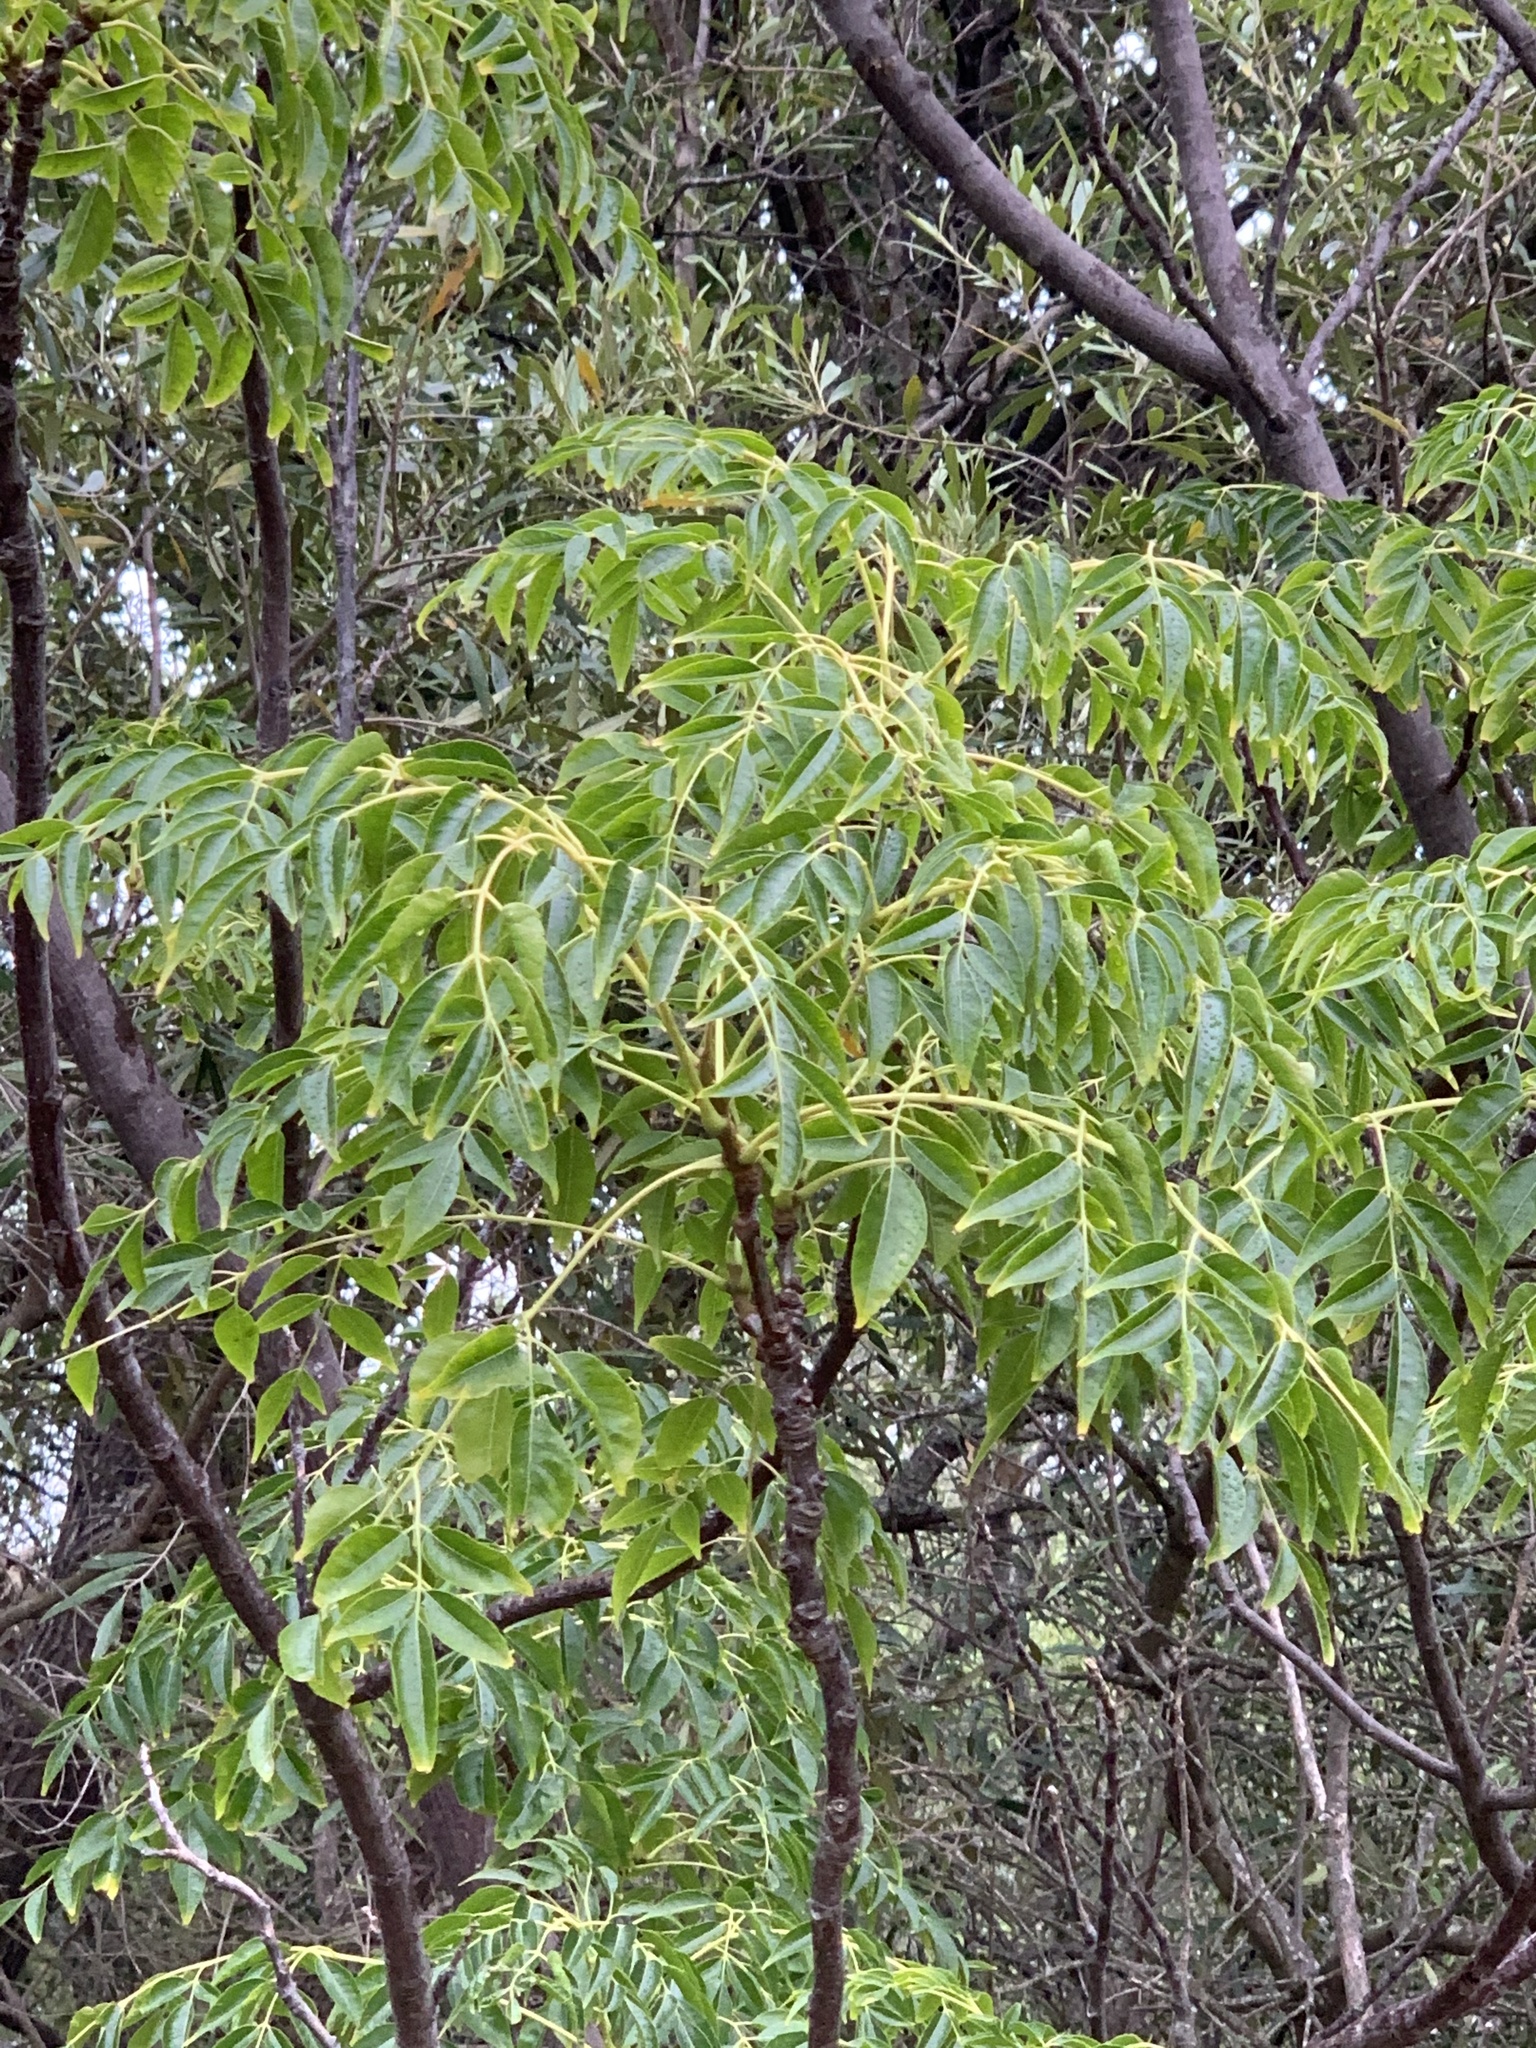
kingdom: Plantae
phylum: Tracheophyta
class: Magnoliopsida
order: Sapindales
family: Meliaceae
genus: Melia
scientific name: Melia azedarach
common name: Chinaberrytree
